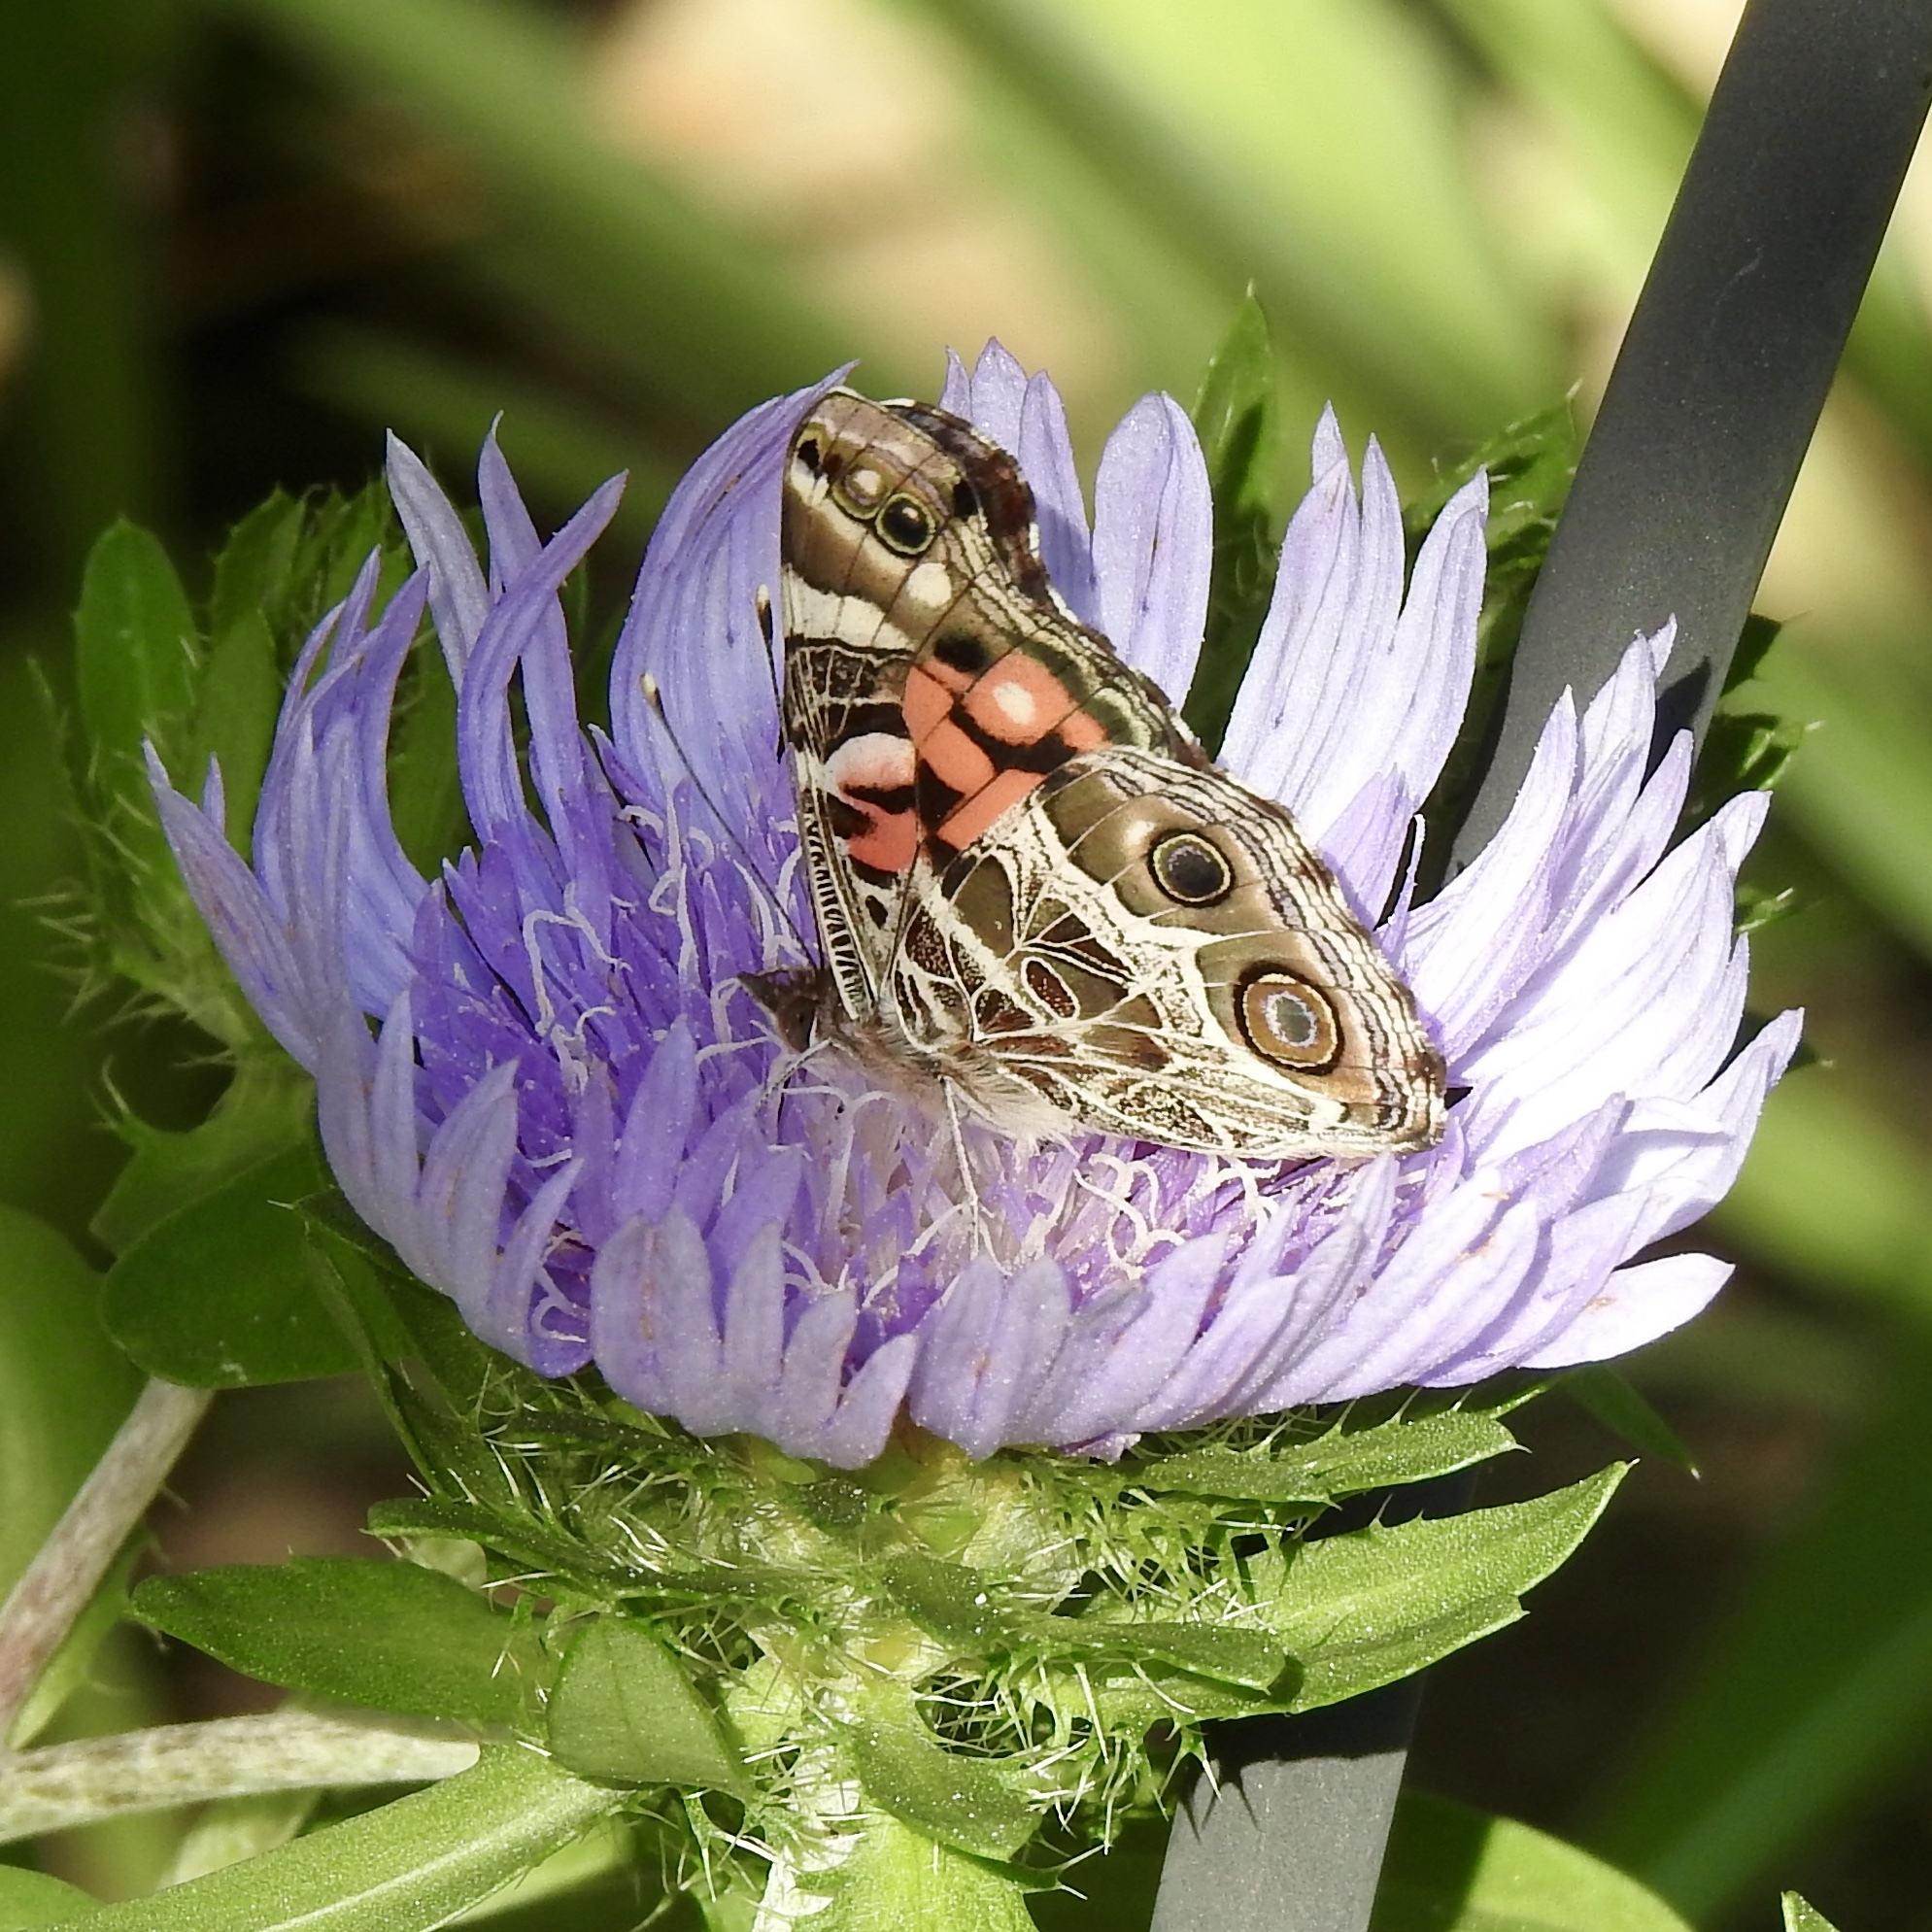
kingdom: Animalia
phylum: Arthropoda
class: Insecta
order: Lepidoptera
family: Nymphalidae
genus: Vanessa
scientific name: Vanessa virginiensis
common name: American lady
